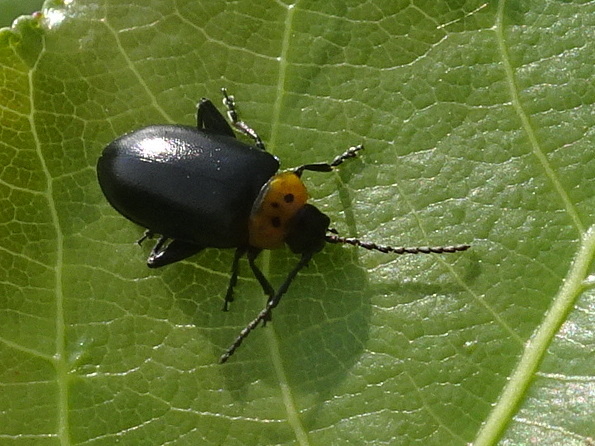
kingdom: Animalia
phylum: Arthropoda
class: Insecta
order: Coleoptera
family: Chrysomelidae
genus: Disonycha
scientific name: Disonycha triangularis
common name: Three-spotted flea beetle
